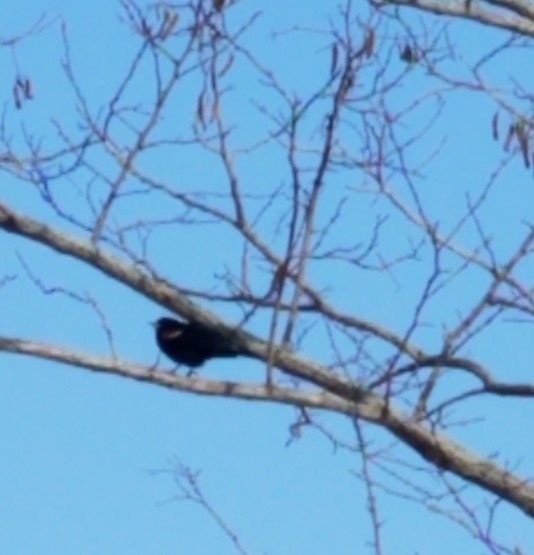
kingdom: Animalia
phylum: Chordata
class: Aves
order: Passeriformes
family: Icteridae
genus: Agelaius
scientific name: Agelaius phoeniceus
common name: Red-winged blackbird
